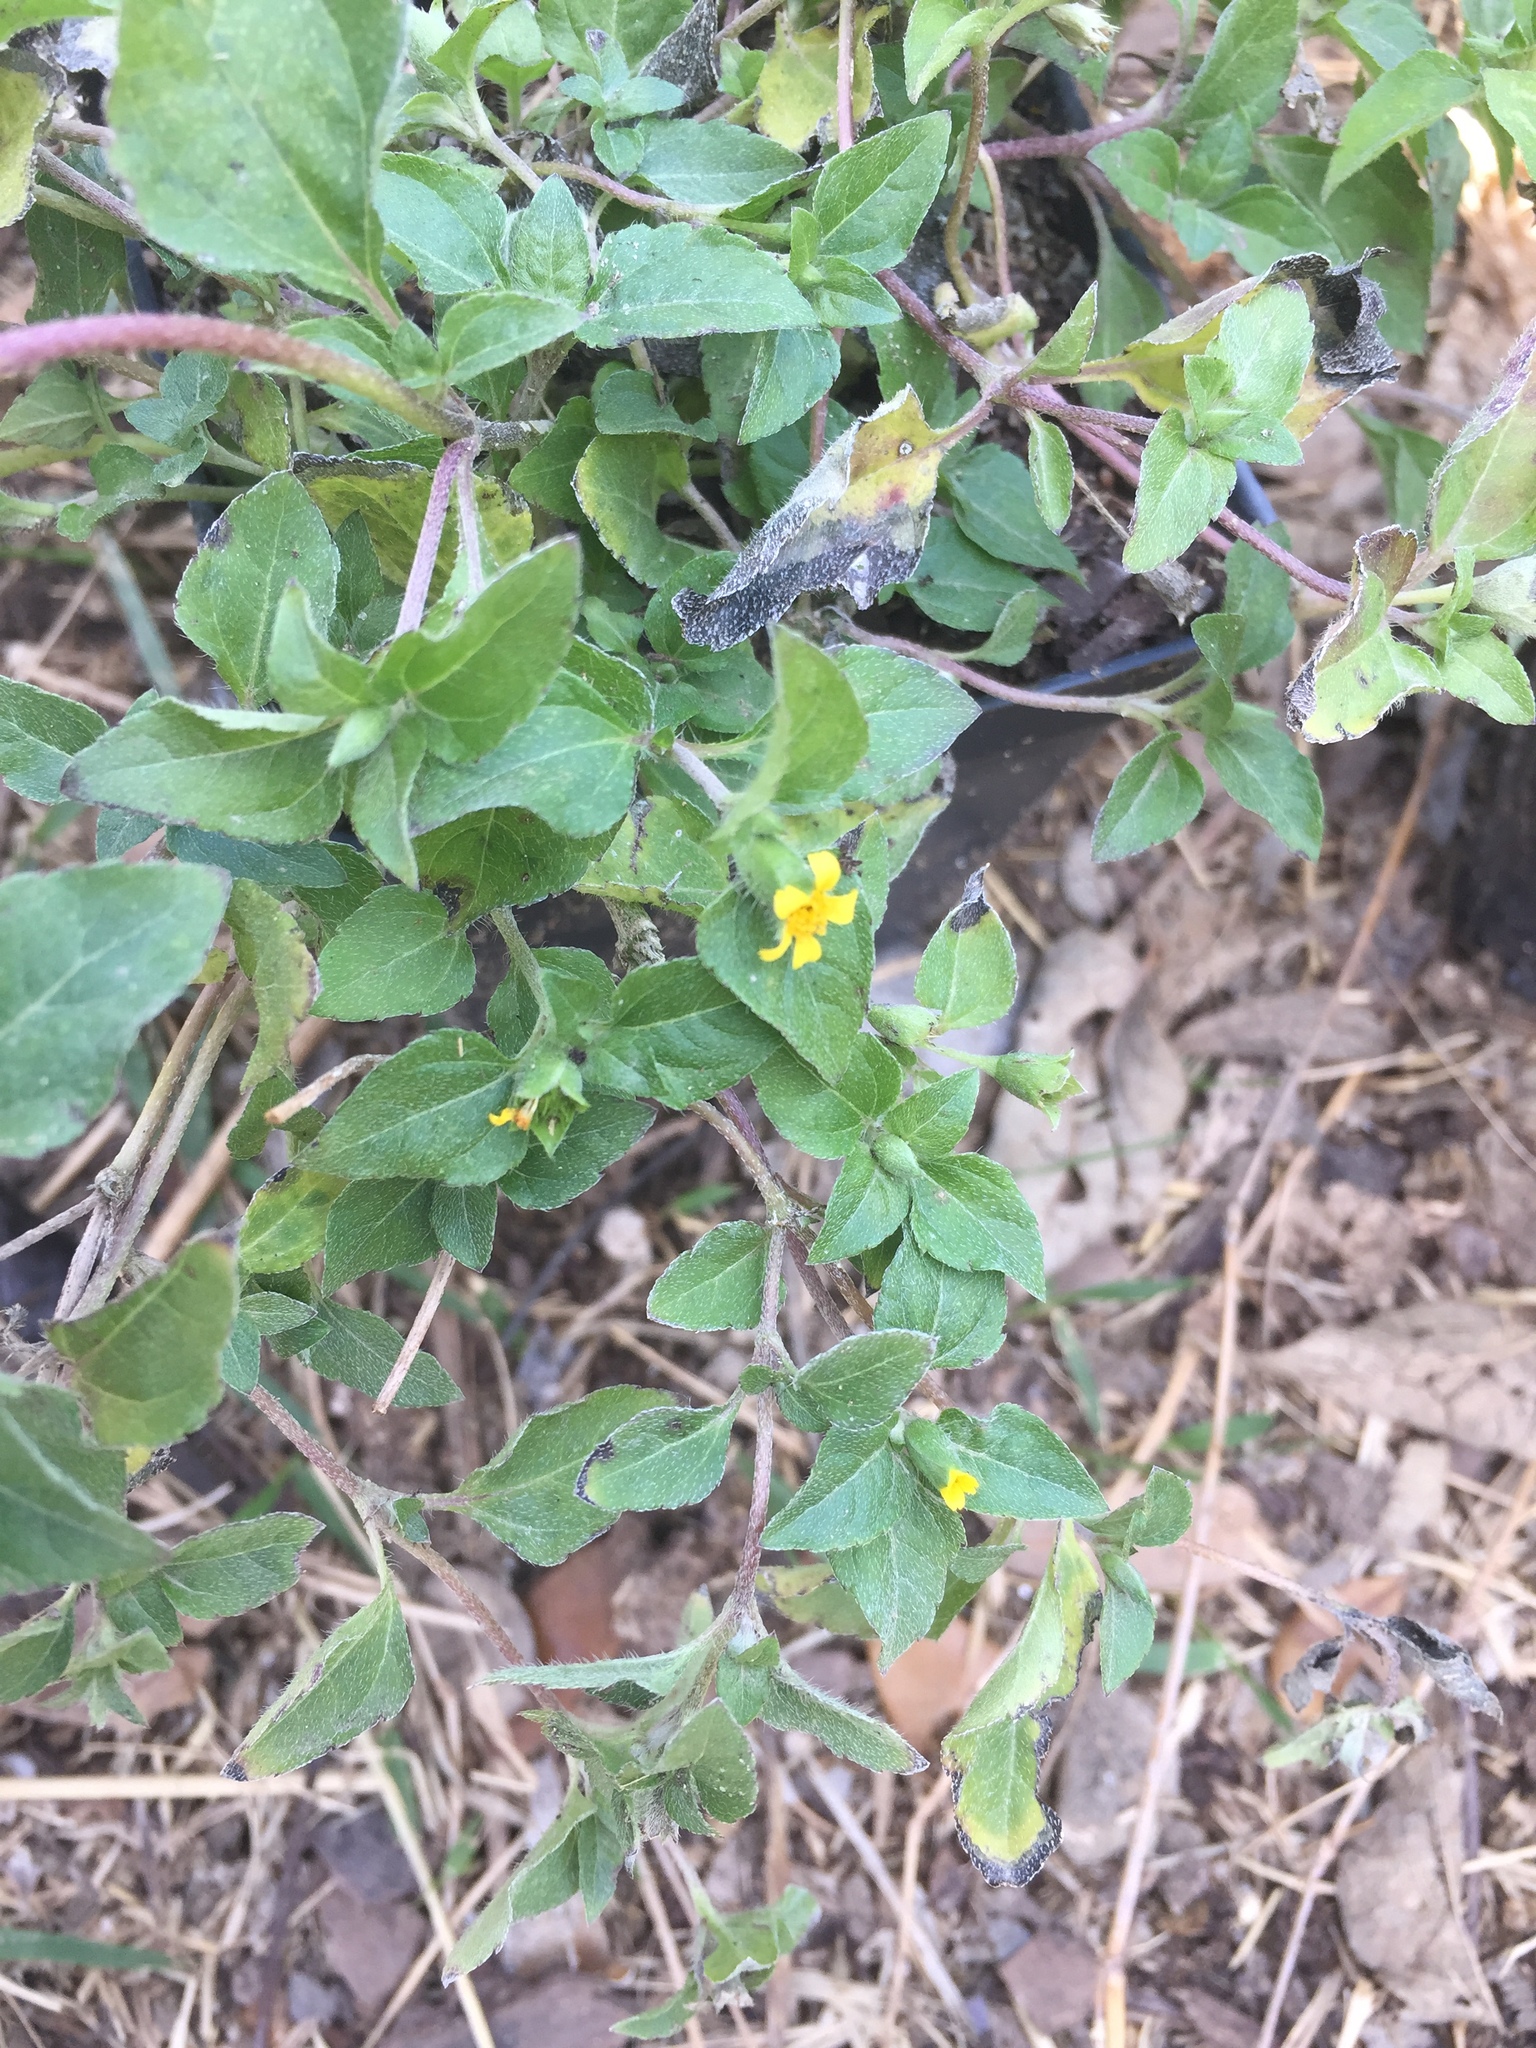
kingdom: Plantae
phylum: Tracheophyta
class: Magnoliopsida
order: Asterales
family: Asteraceae
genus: Calyptocarpus
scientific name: Calyptocarpus vialis
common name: Straggler daisy
